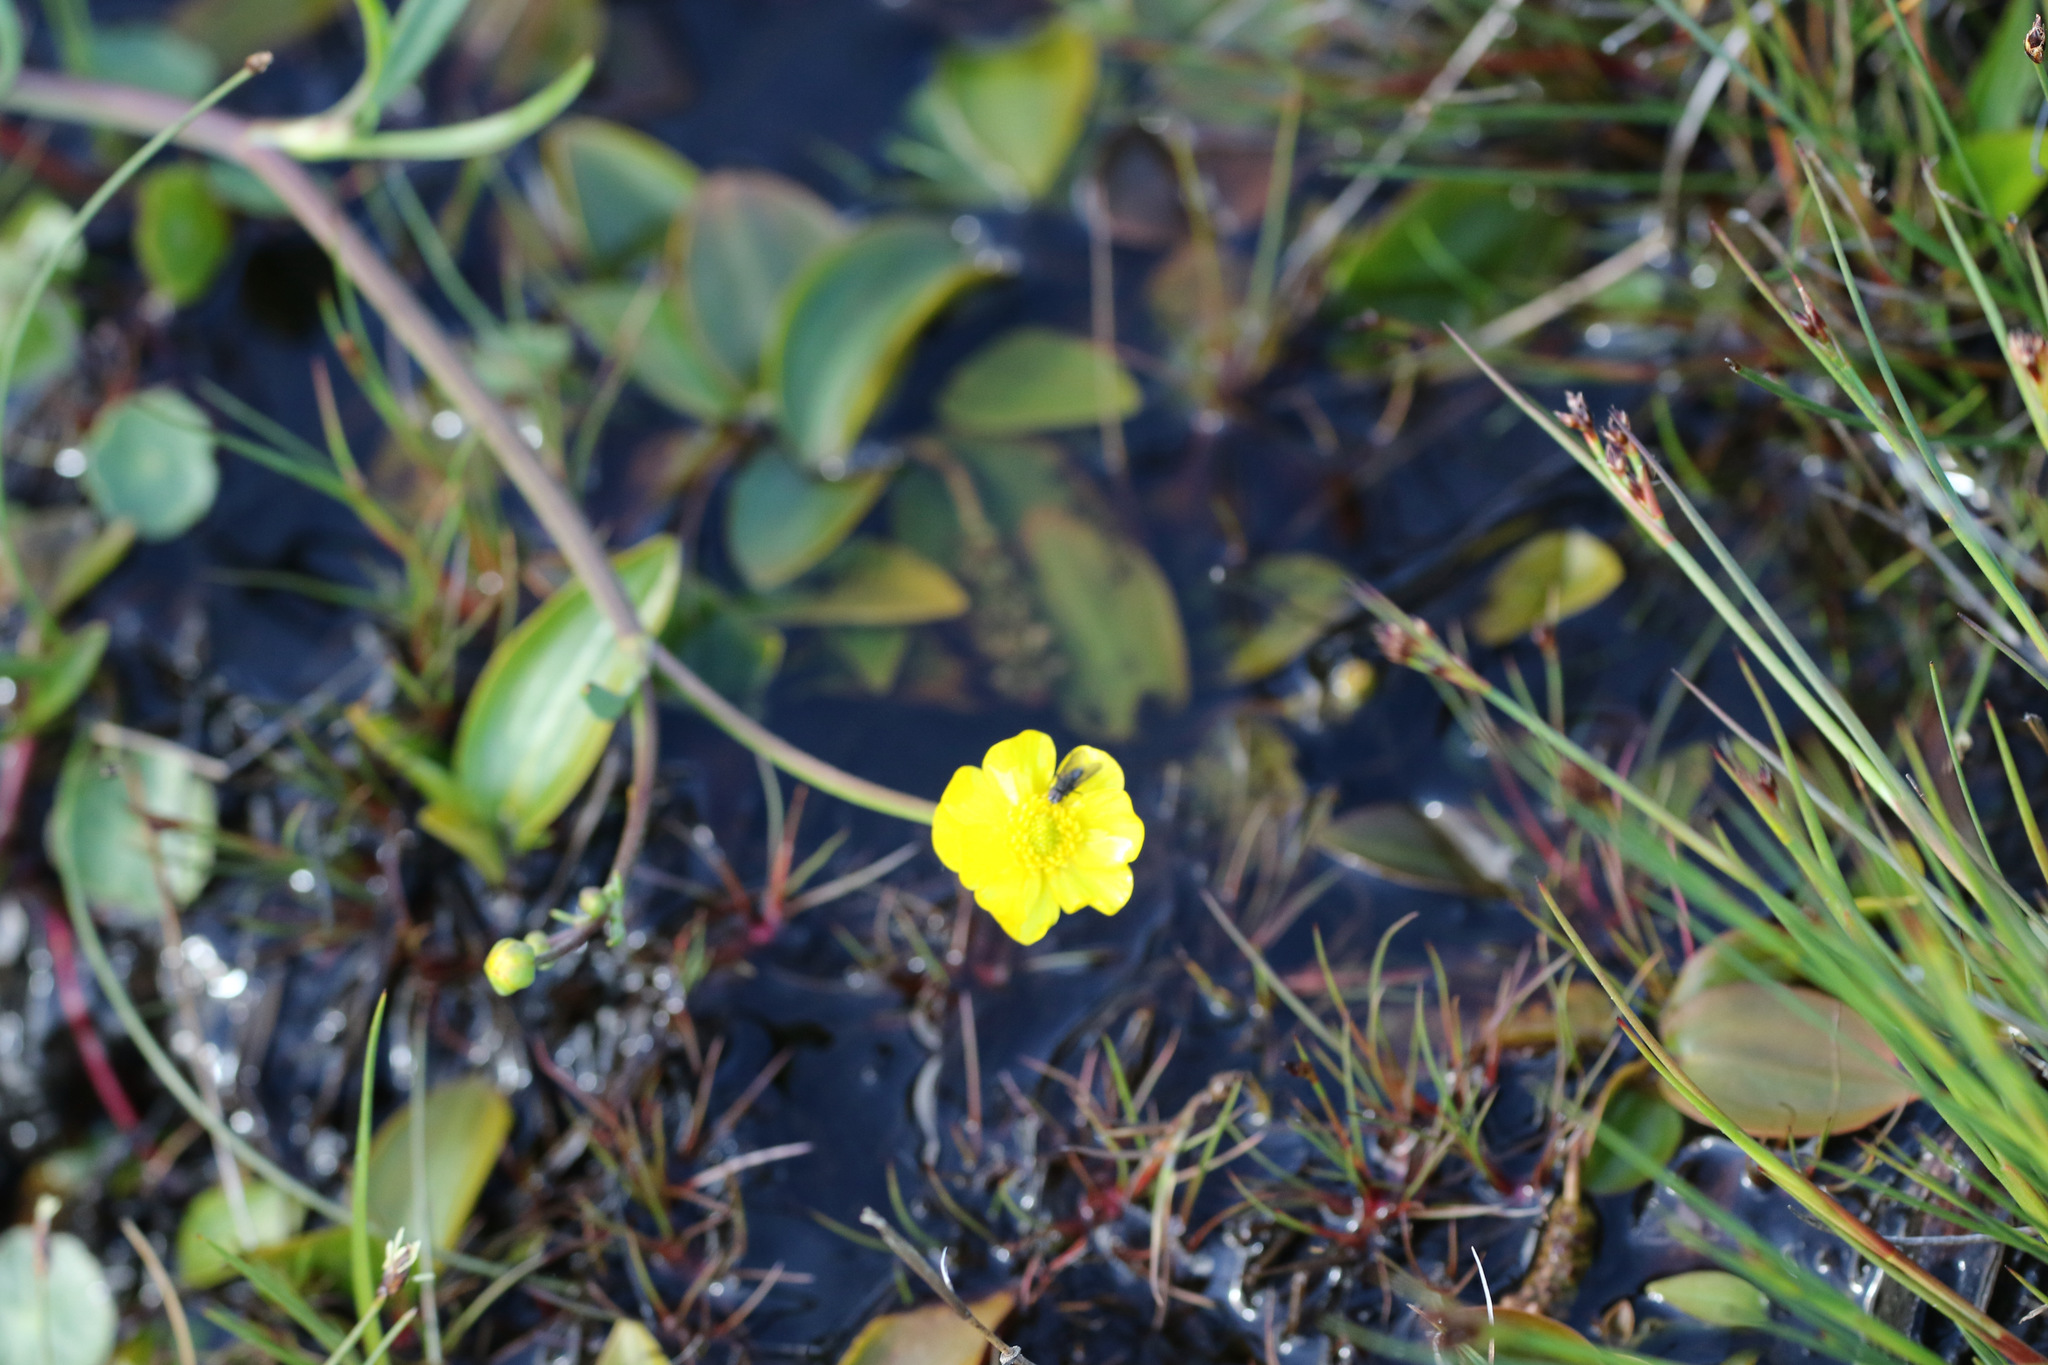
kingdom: Plantae
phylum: Tracheophyta
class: Magnoliopsida
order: Ranunculales
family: Ranunculaceae
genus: Ranunculus
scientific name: Ranunculus flammula
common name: Lesser spearwort
